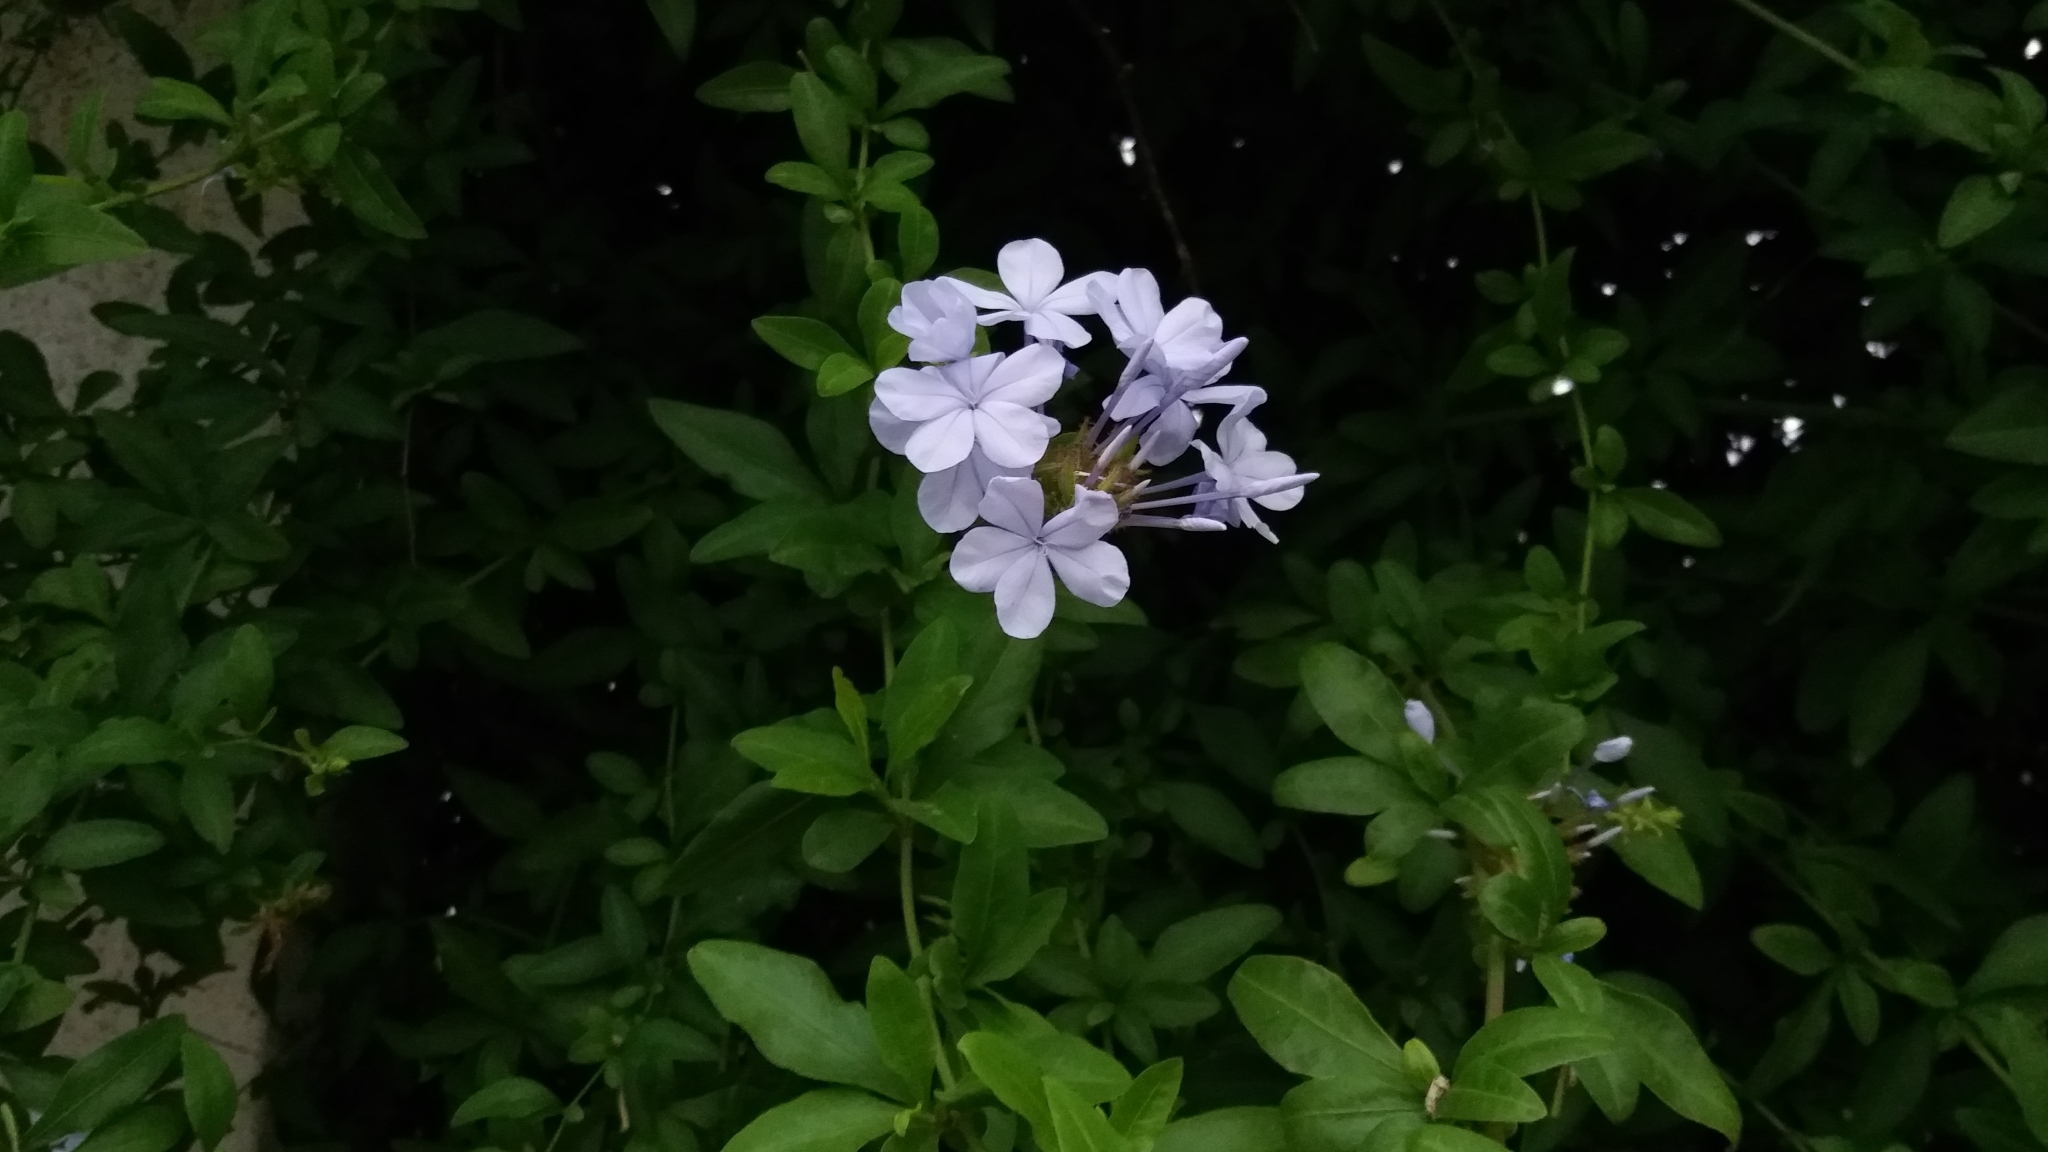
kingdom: Plantae
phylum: Tracheophyta
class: Magnoliopsida
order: Caryophyllales
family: Plumbaginaceae
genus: Plumbago
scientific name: Plumbago auriculata
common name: Cape leadwort
